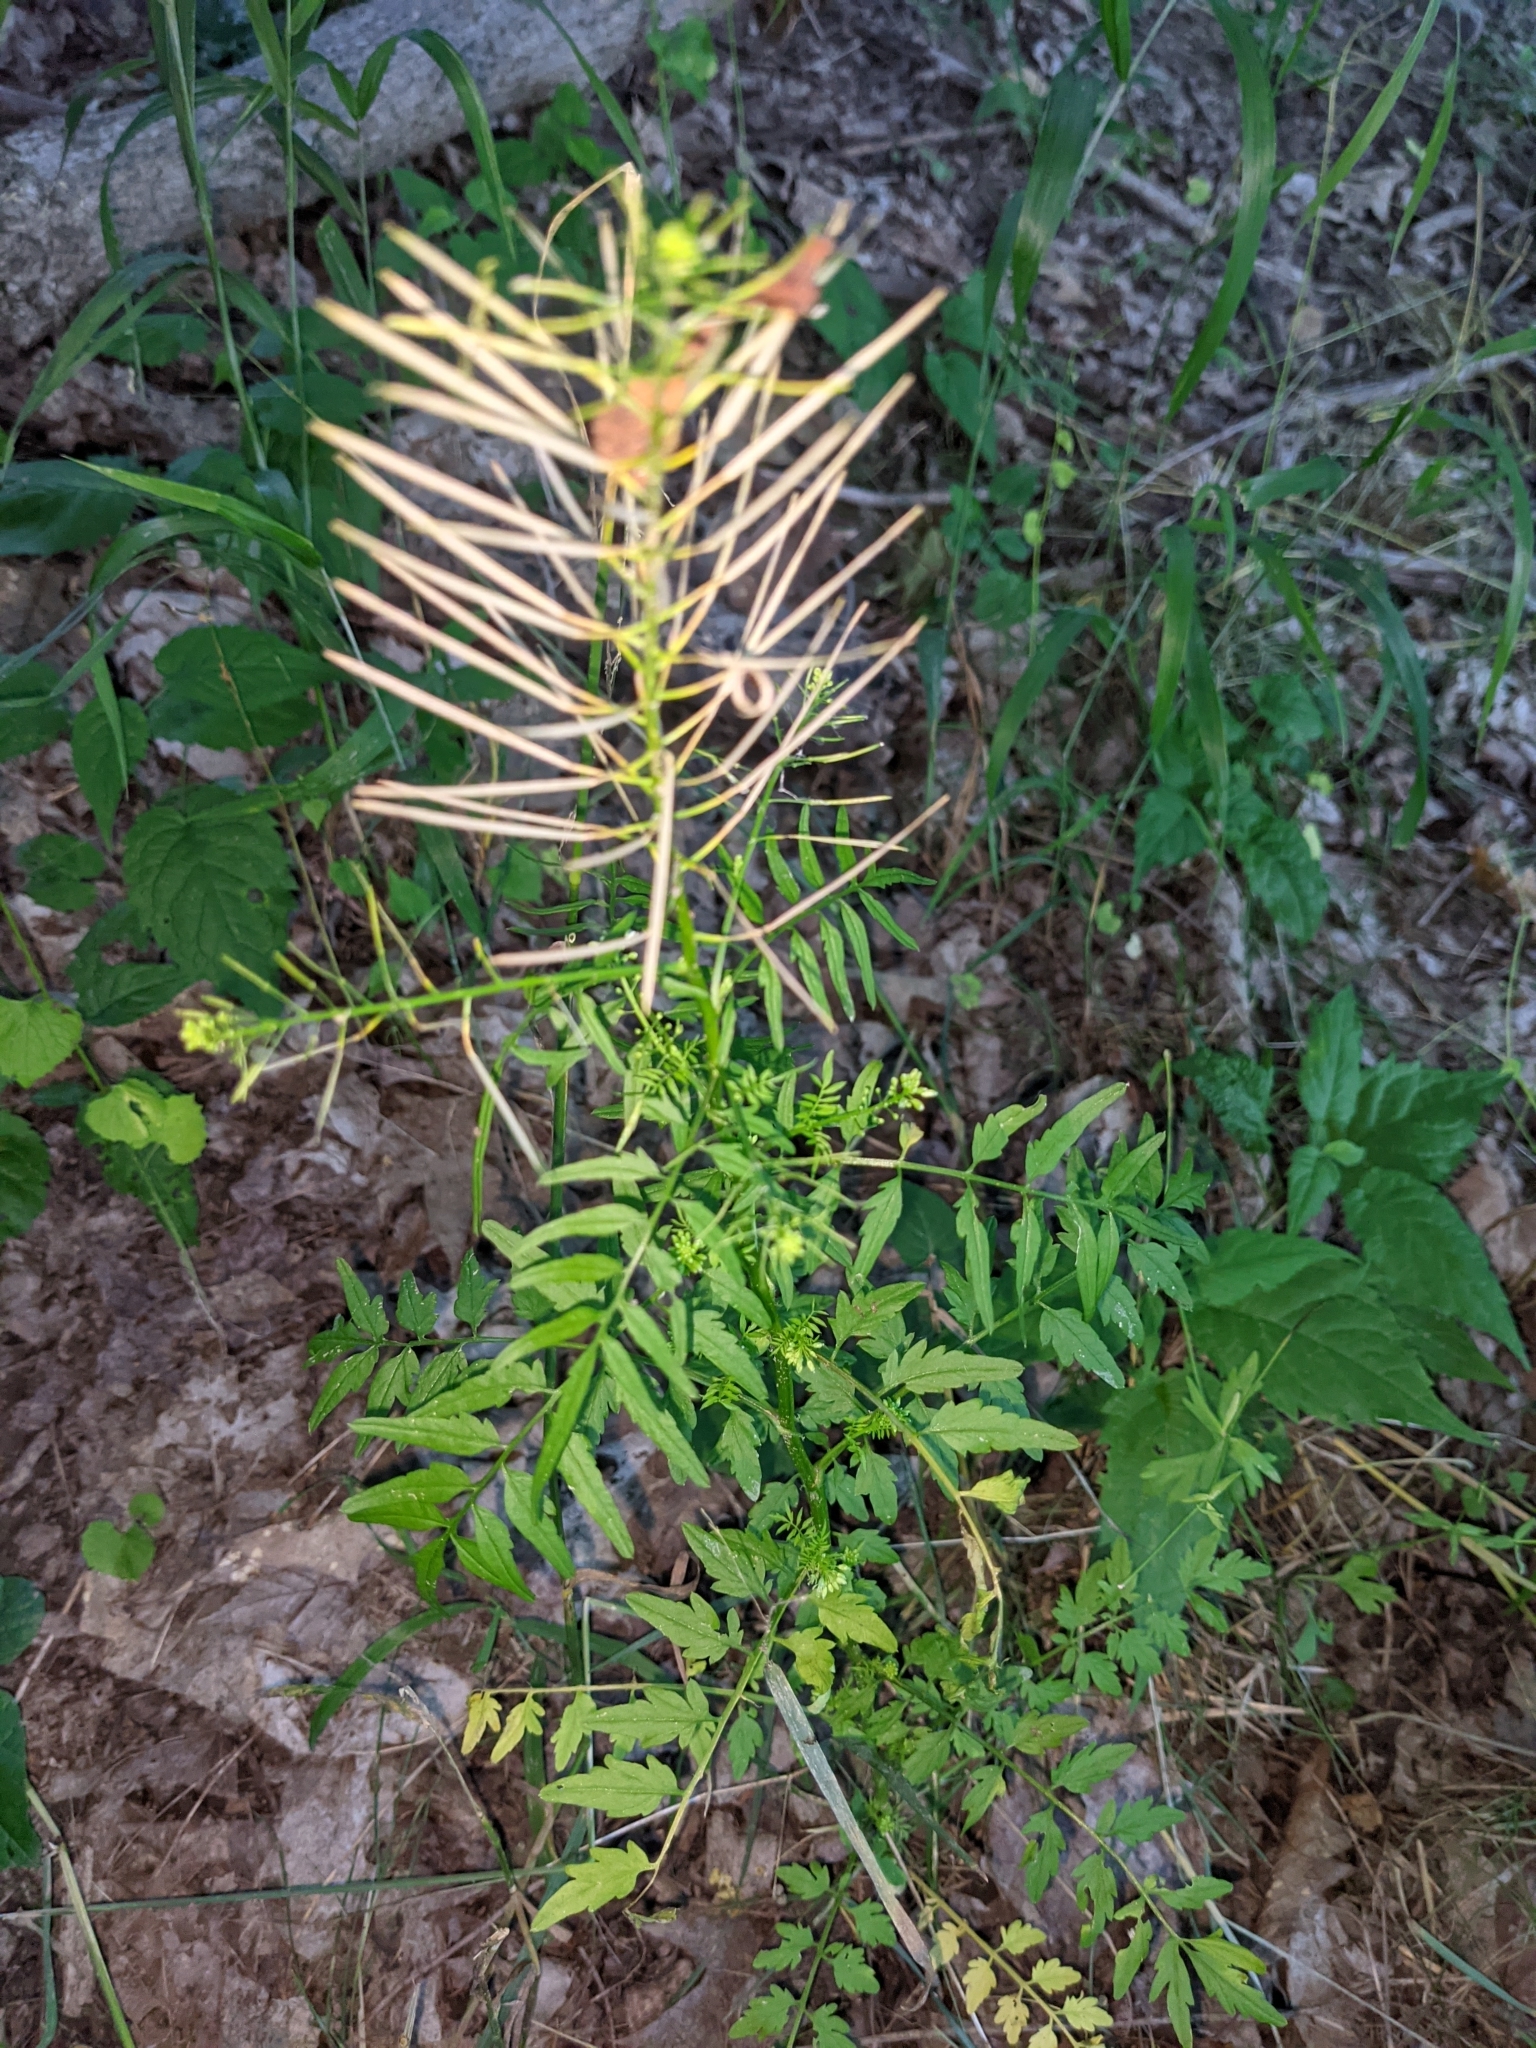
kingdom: Plantae
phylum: Tracheophyta
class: Magnoliopsida
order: Brassicales
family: Brassicaceae
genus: Cardamine
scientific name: Cardamine impatiens
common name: Narrow-leaved bitter-cress
